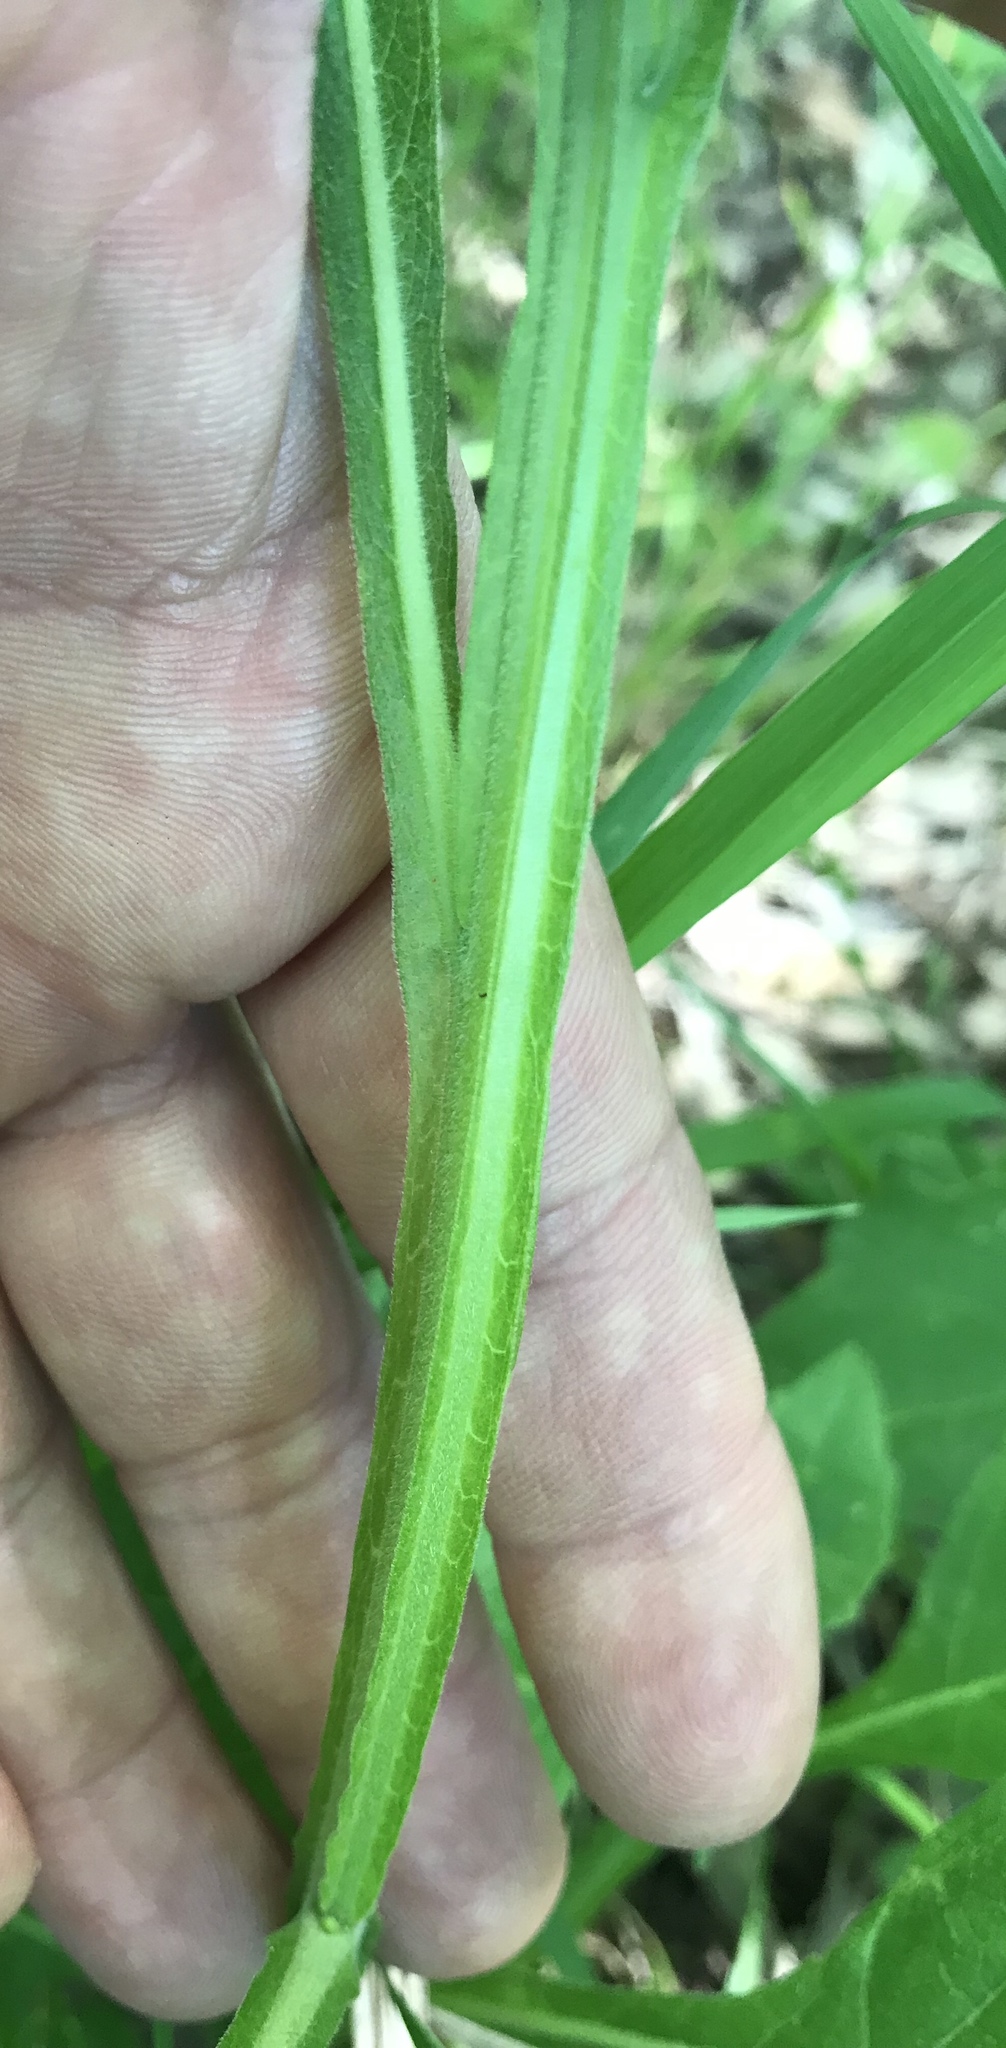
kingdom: Plantae
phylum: Tracheophyta
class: Magnoliopsida
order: Asterales
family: Asteraceae
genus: Verbesina
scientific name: Verbesina virginica
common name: Frostweed
